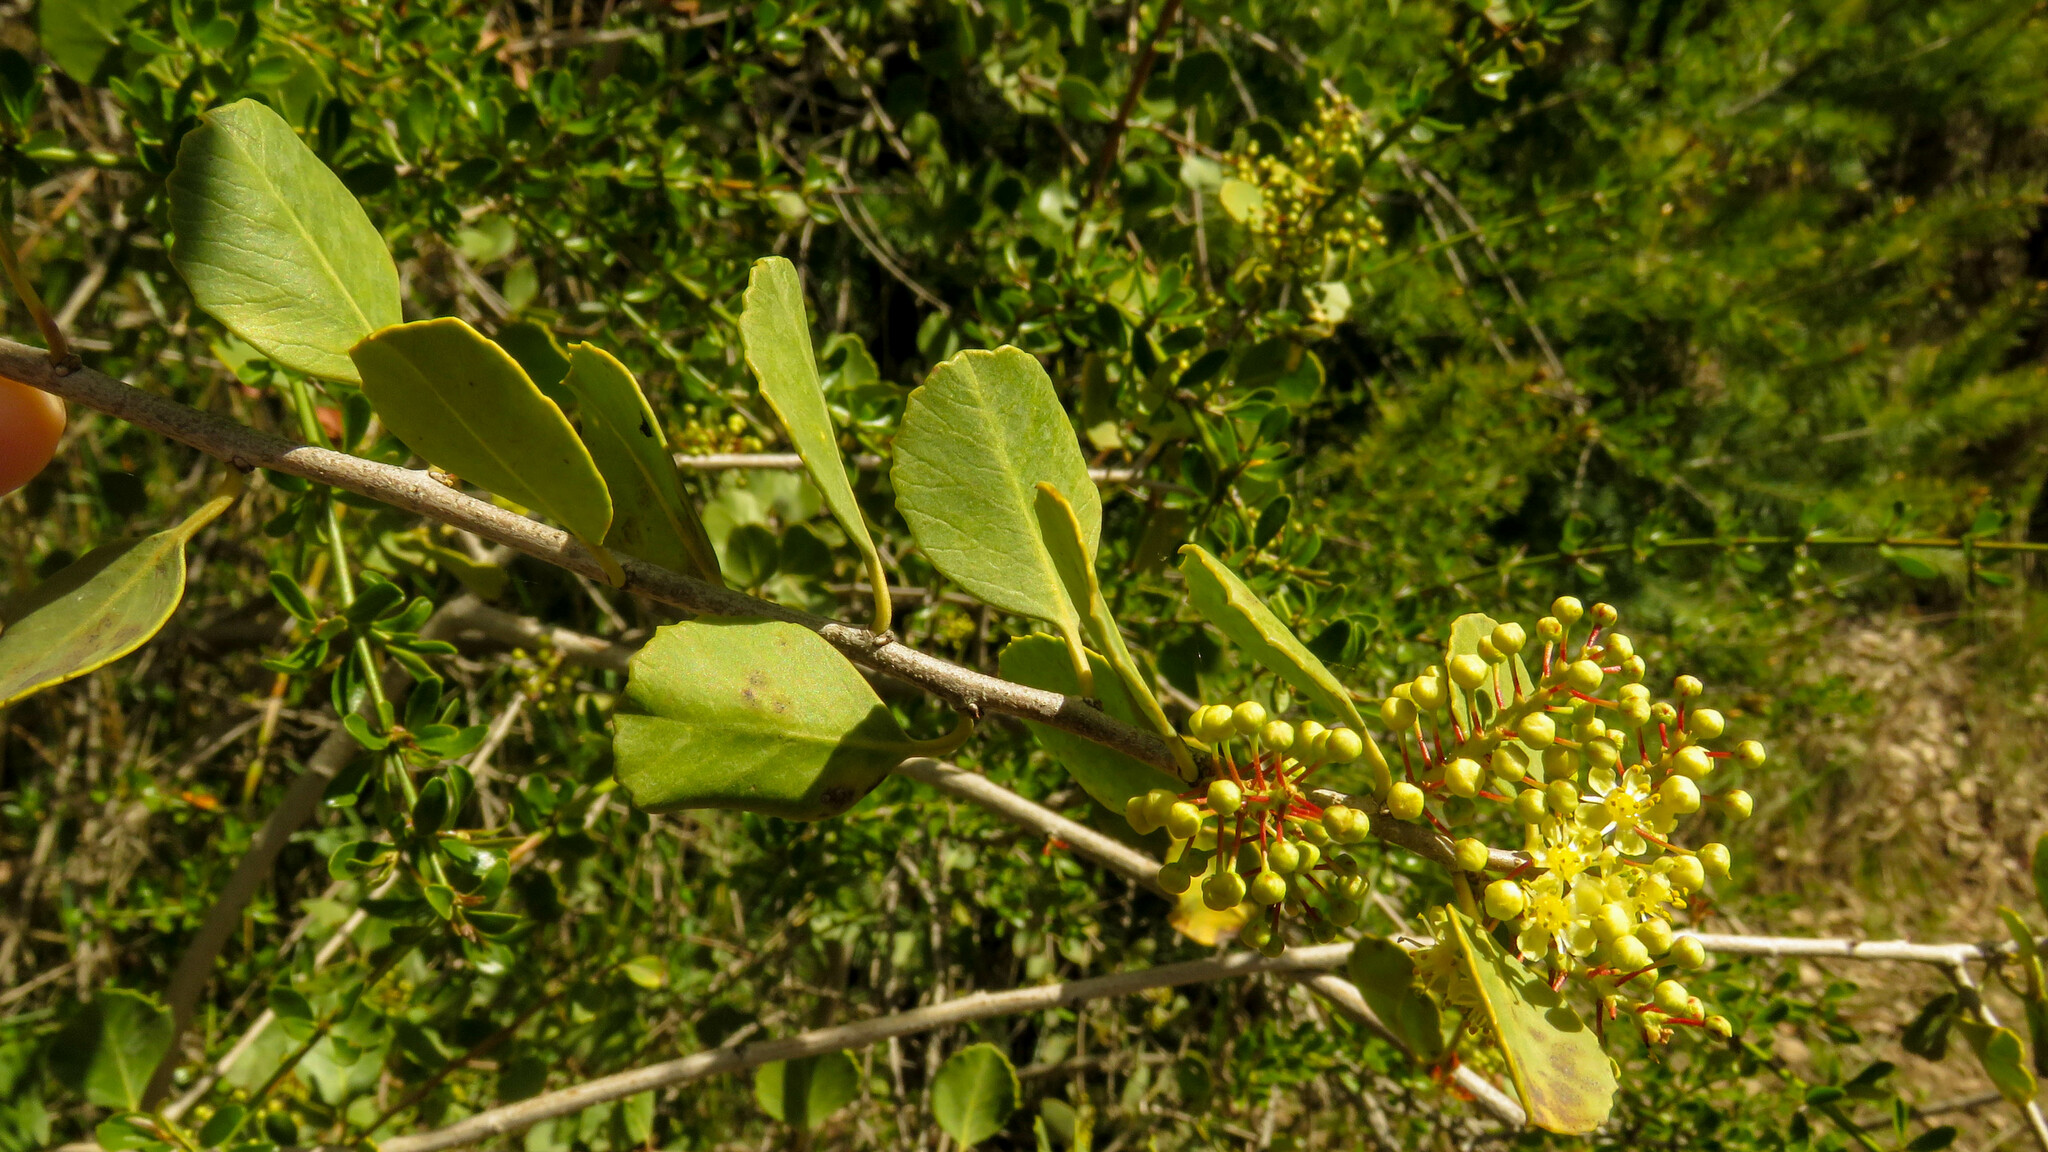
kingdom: Plantae
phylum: Tracheophyta
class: Magnoliopsida
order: Sapindales
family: Anacardiaceae
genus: Schinus
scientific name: Schinus patagonica
